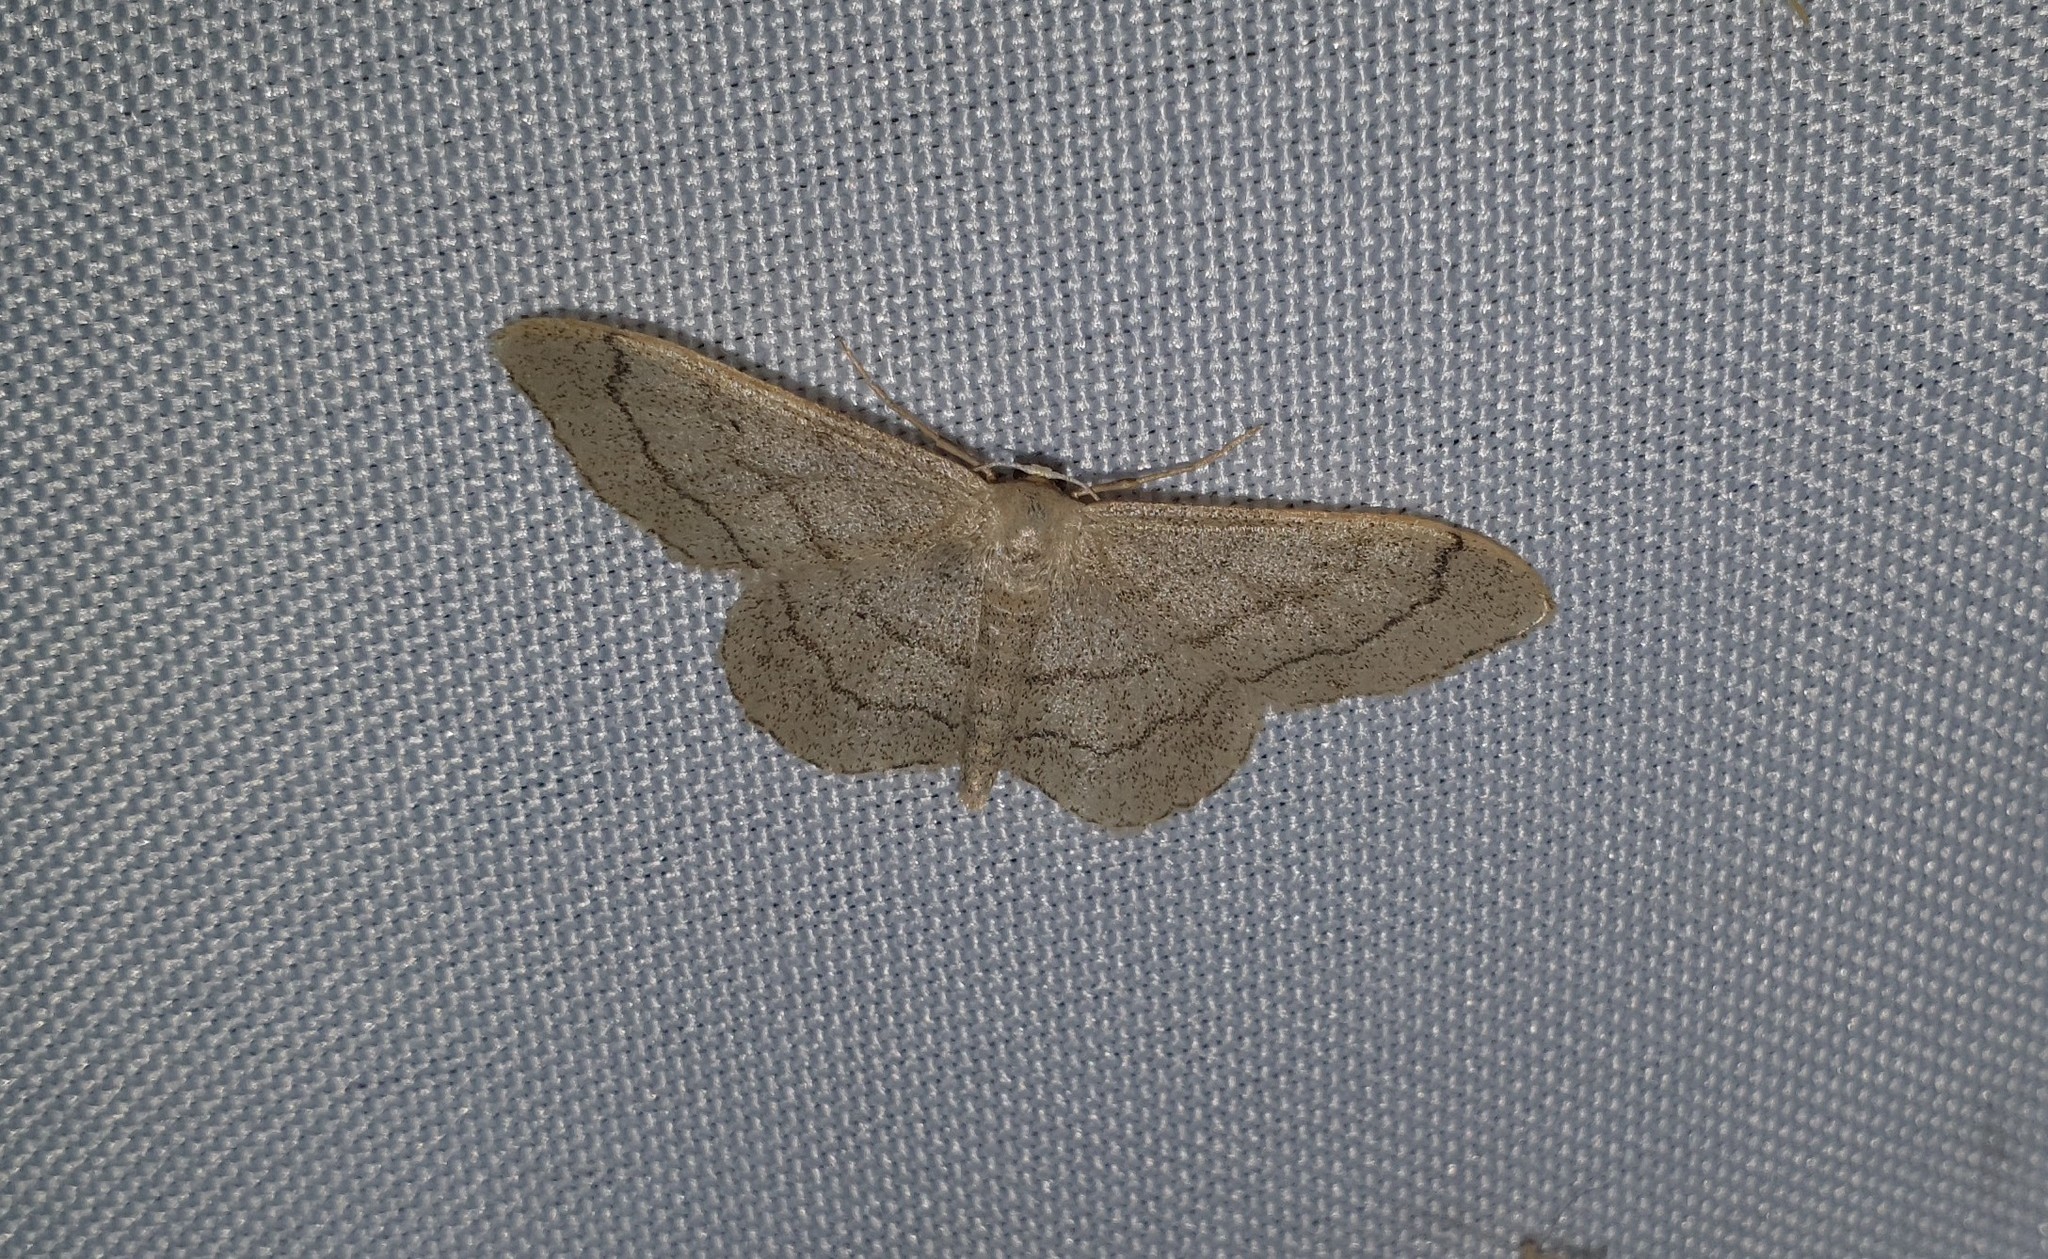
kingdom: Animalia
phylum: Arthropoda
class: Insecta
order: Lepidoptera
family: Geometridae
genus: Idaea
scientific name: Idaea aversata
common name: Riband wave
